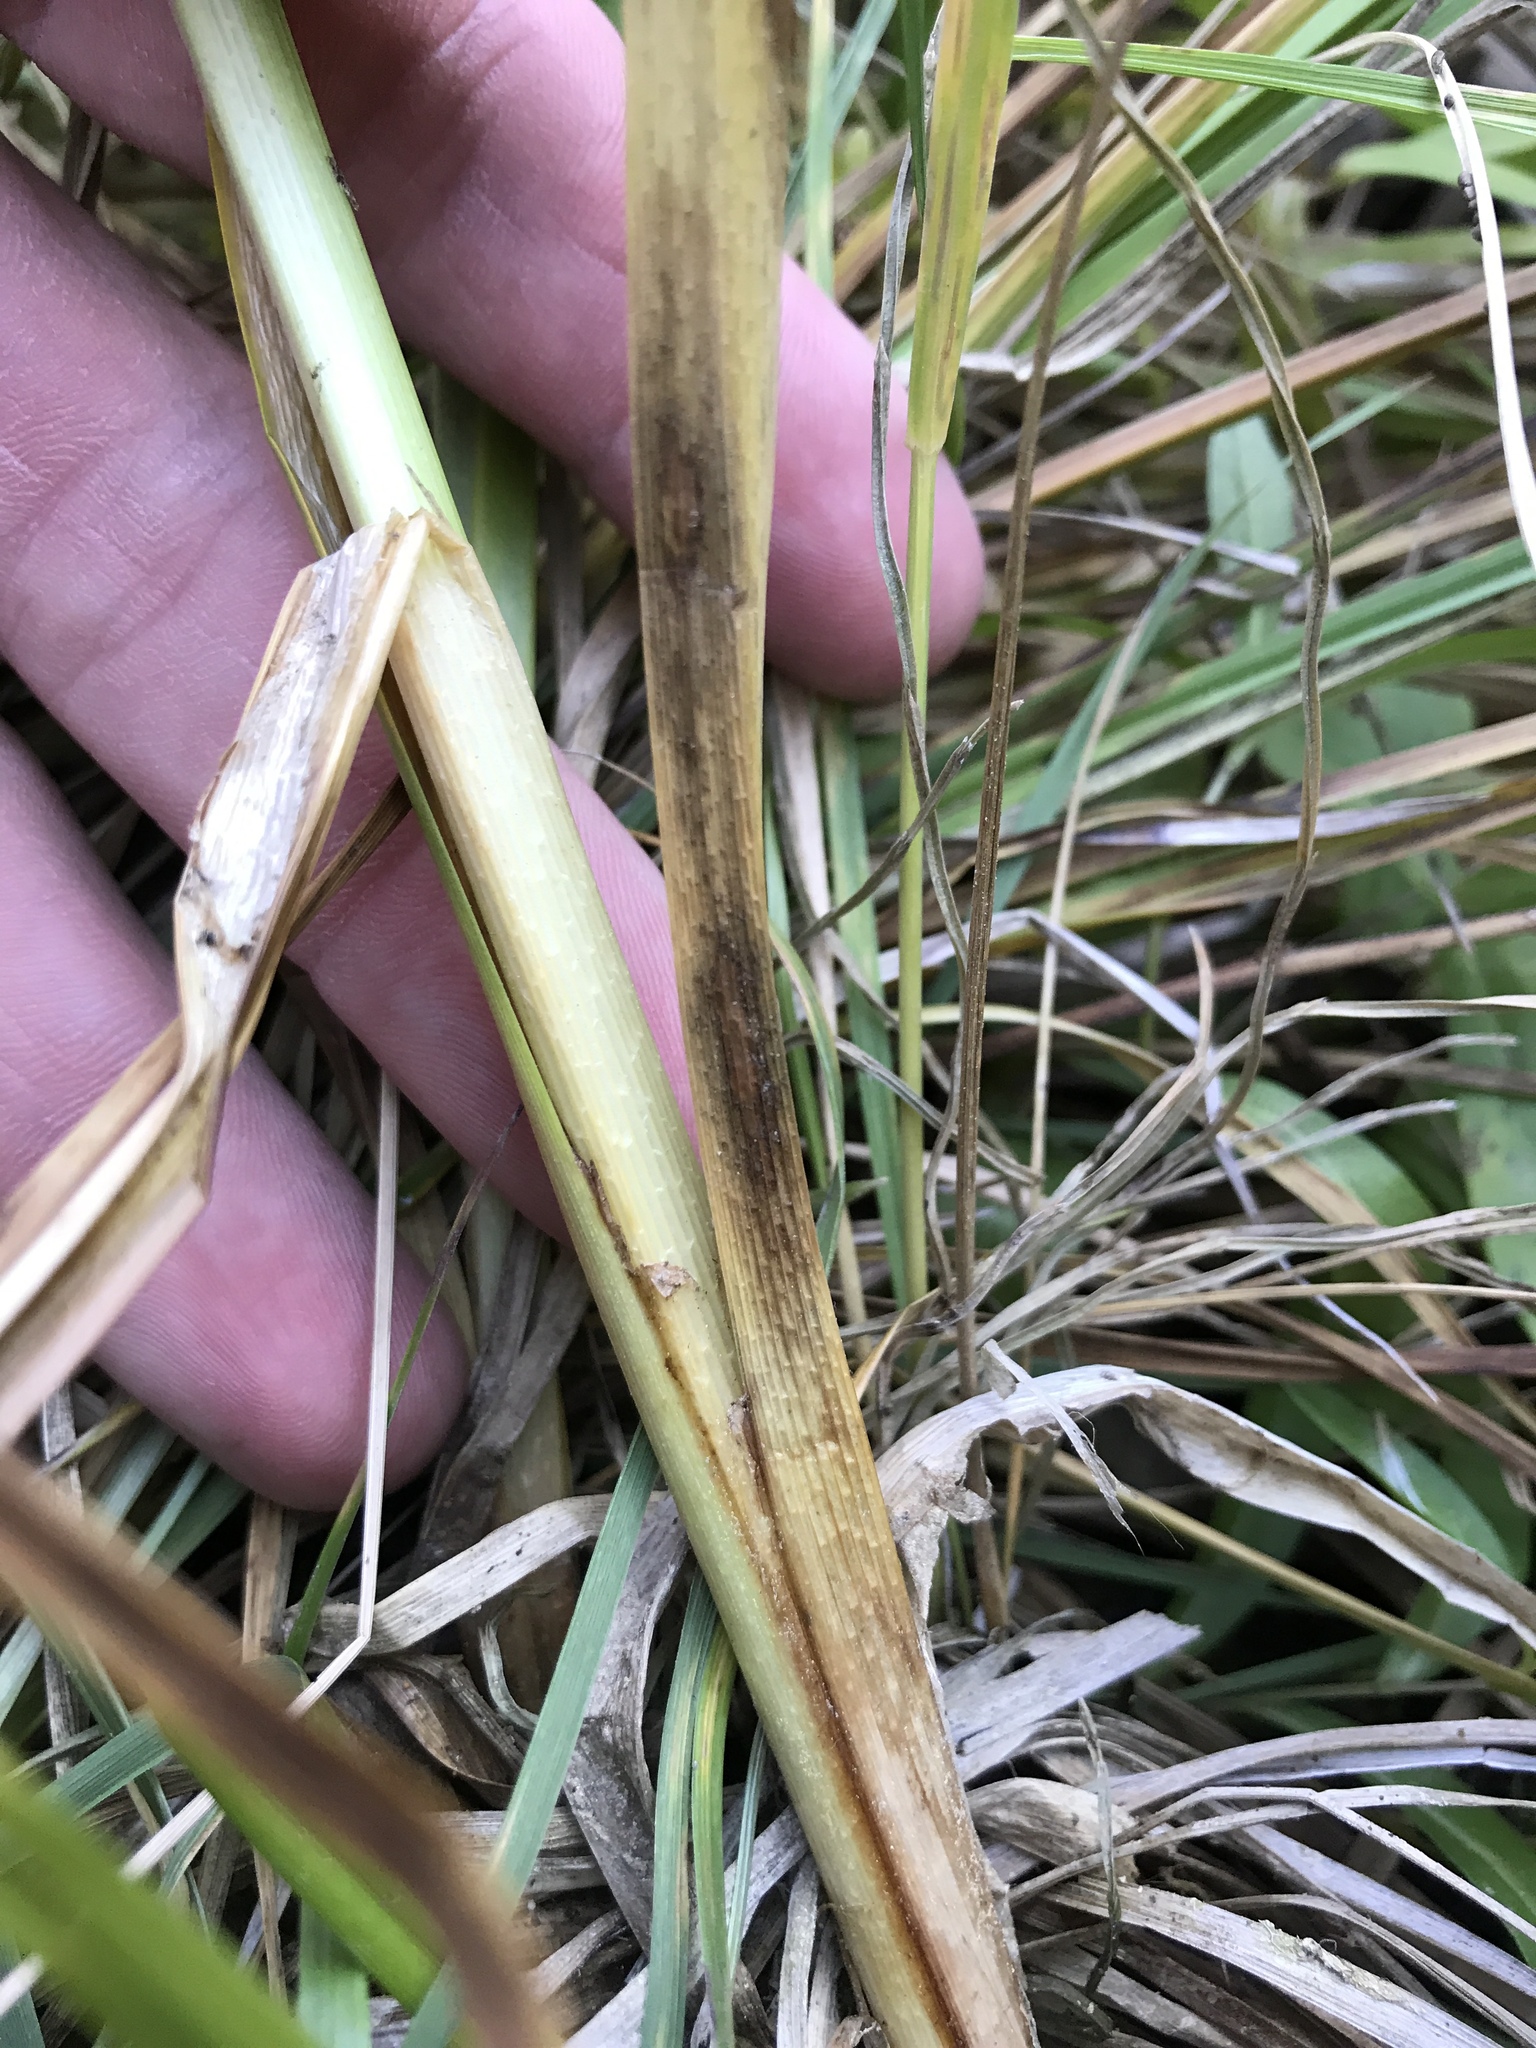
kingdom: Plantae
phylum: Tracheophyta
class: Liliopsida
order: Poales
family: Cyperaceae
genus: Carex
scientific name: Carex utriculata
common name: Beaked sedge
